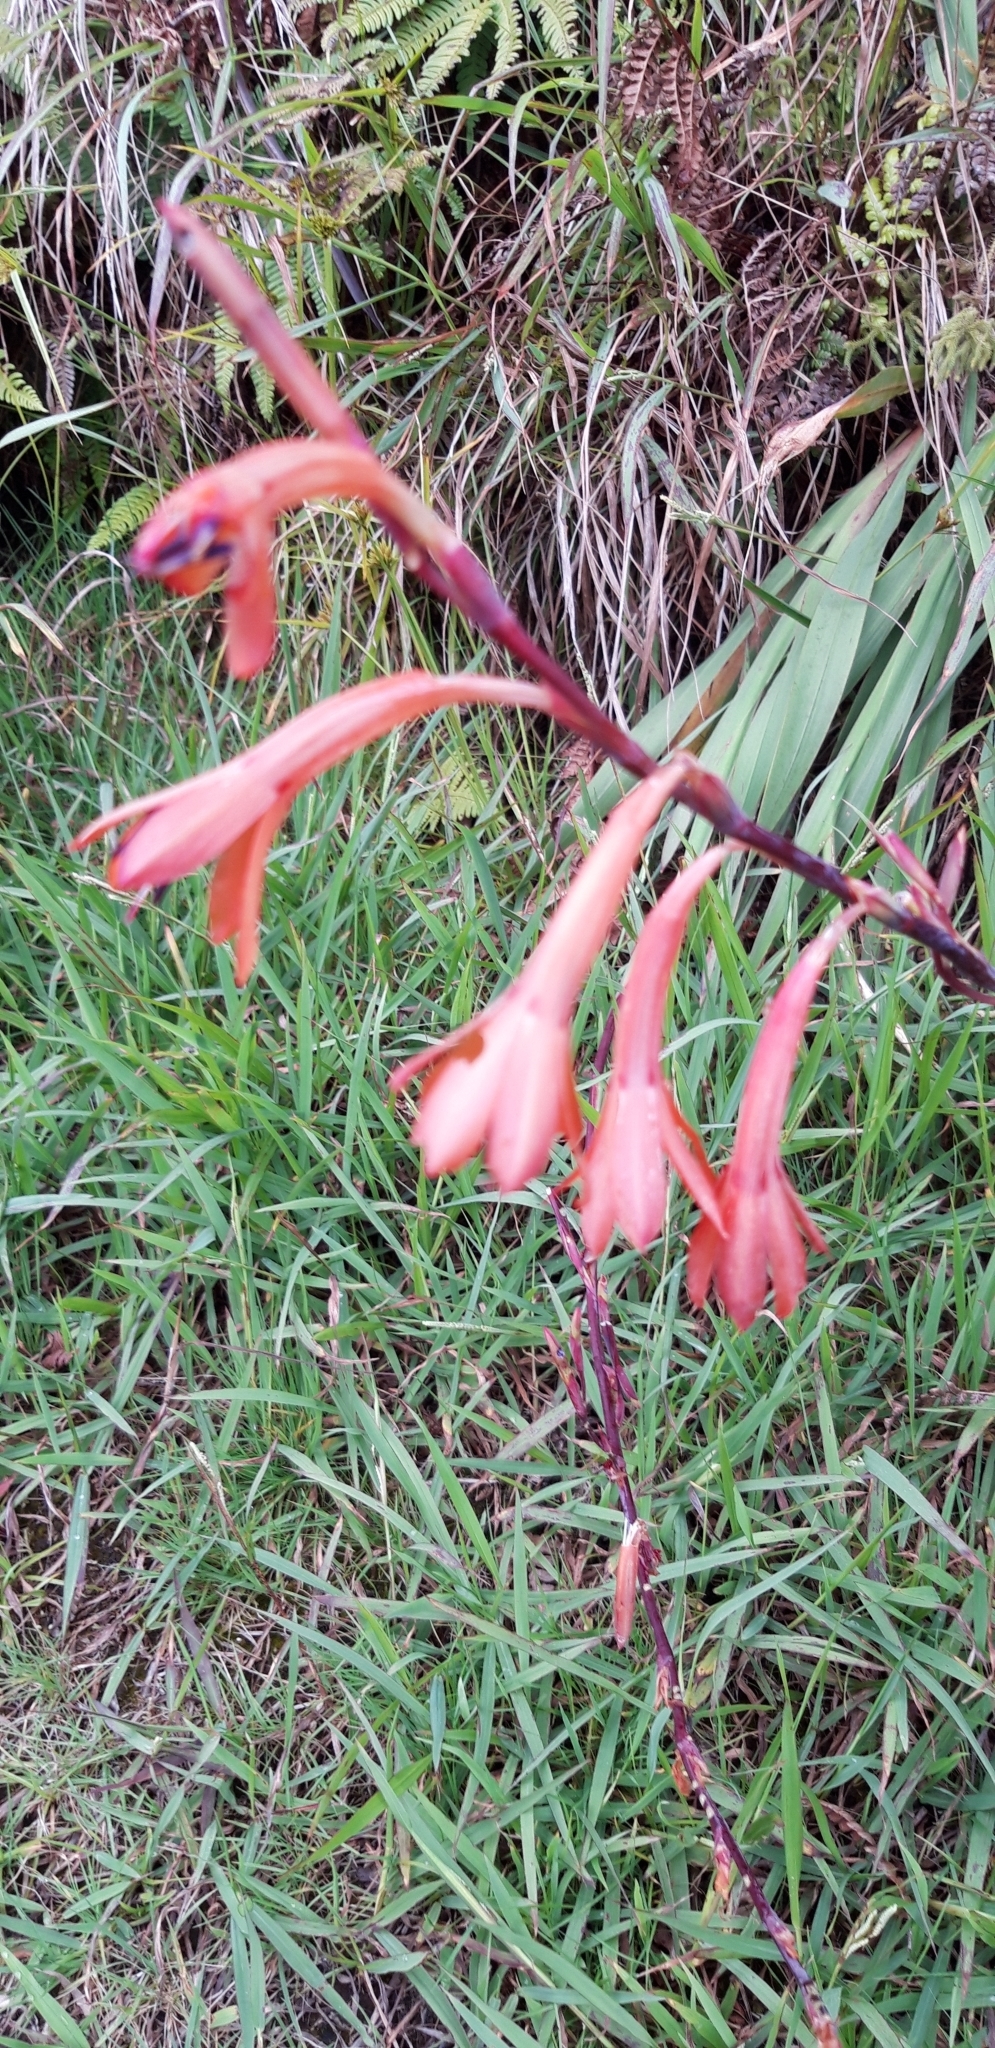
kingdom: Plantae
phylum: Tracheophyta
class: Liliopsida
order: Asparagales
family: Iridaceae
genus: Watsonia
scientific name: Watsonia meriana
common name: Bulbil bugle-lily
